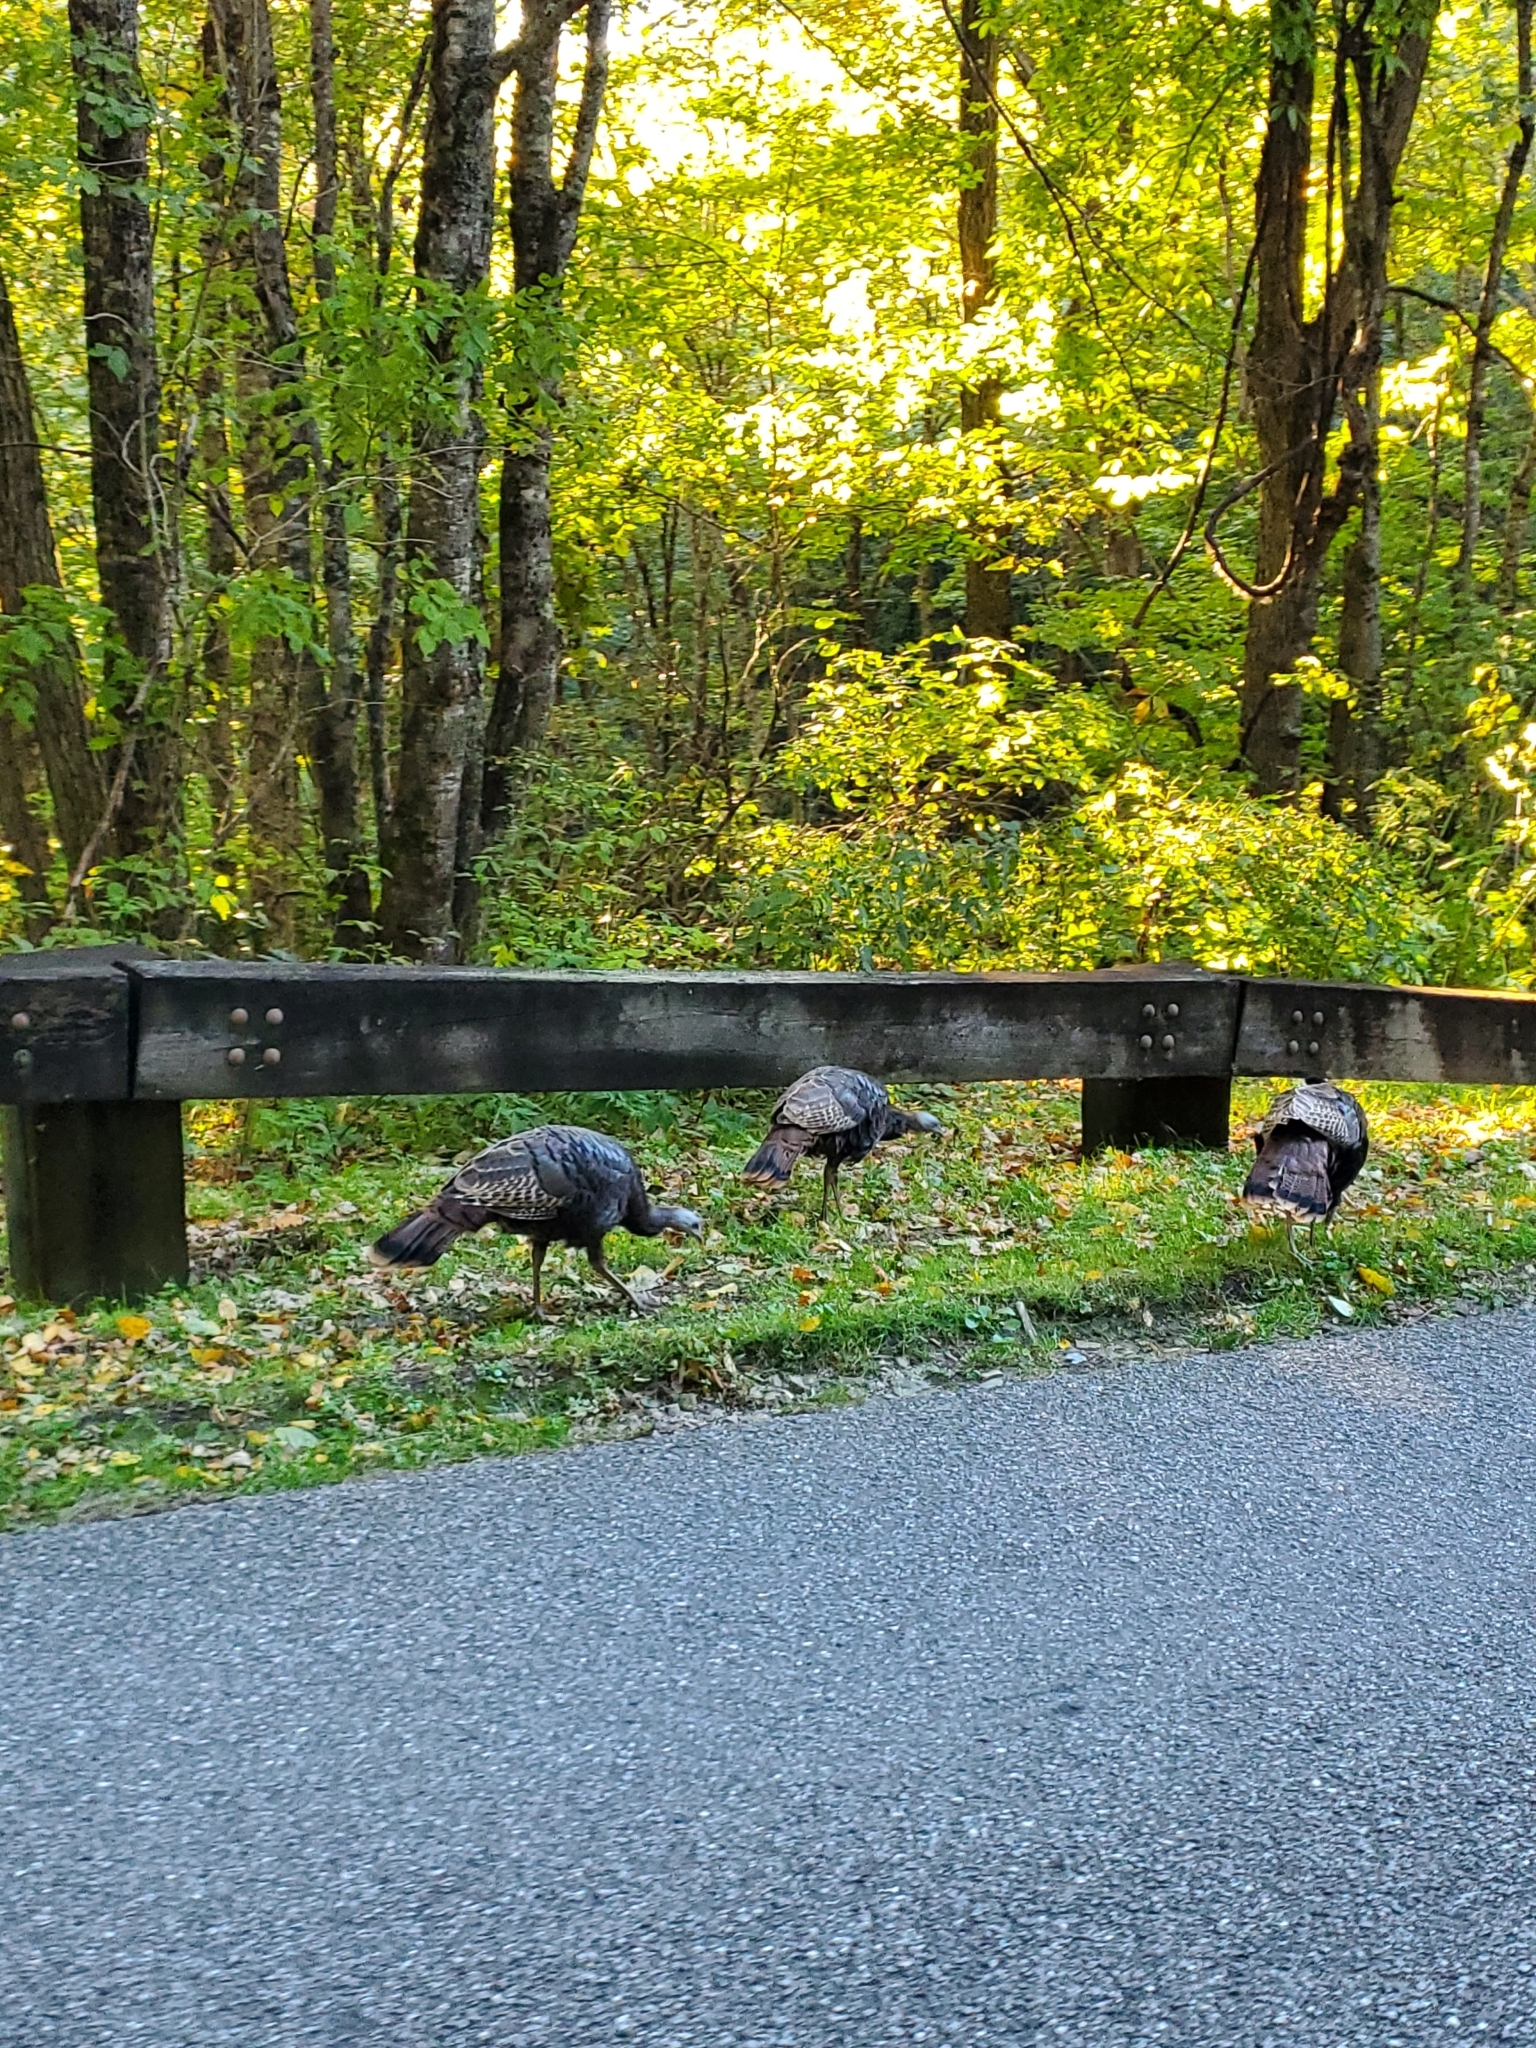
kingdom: Animalia
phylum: Chordata
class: Aves
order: Galliformes
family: Phasianidae
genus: Meleagris
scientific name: Meleagris gallopavo
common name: Wild turkey
